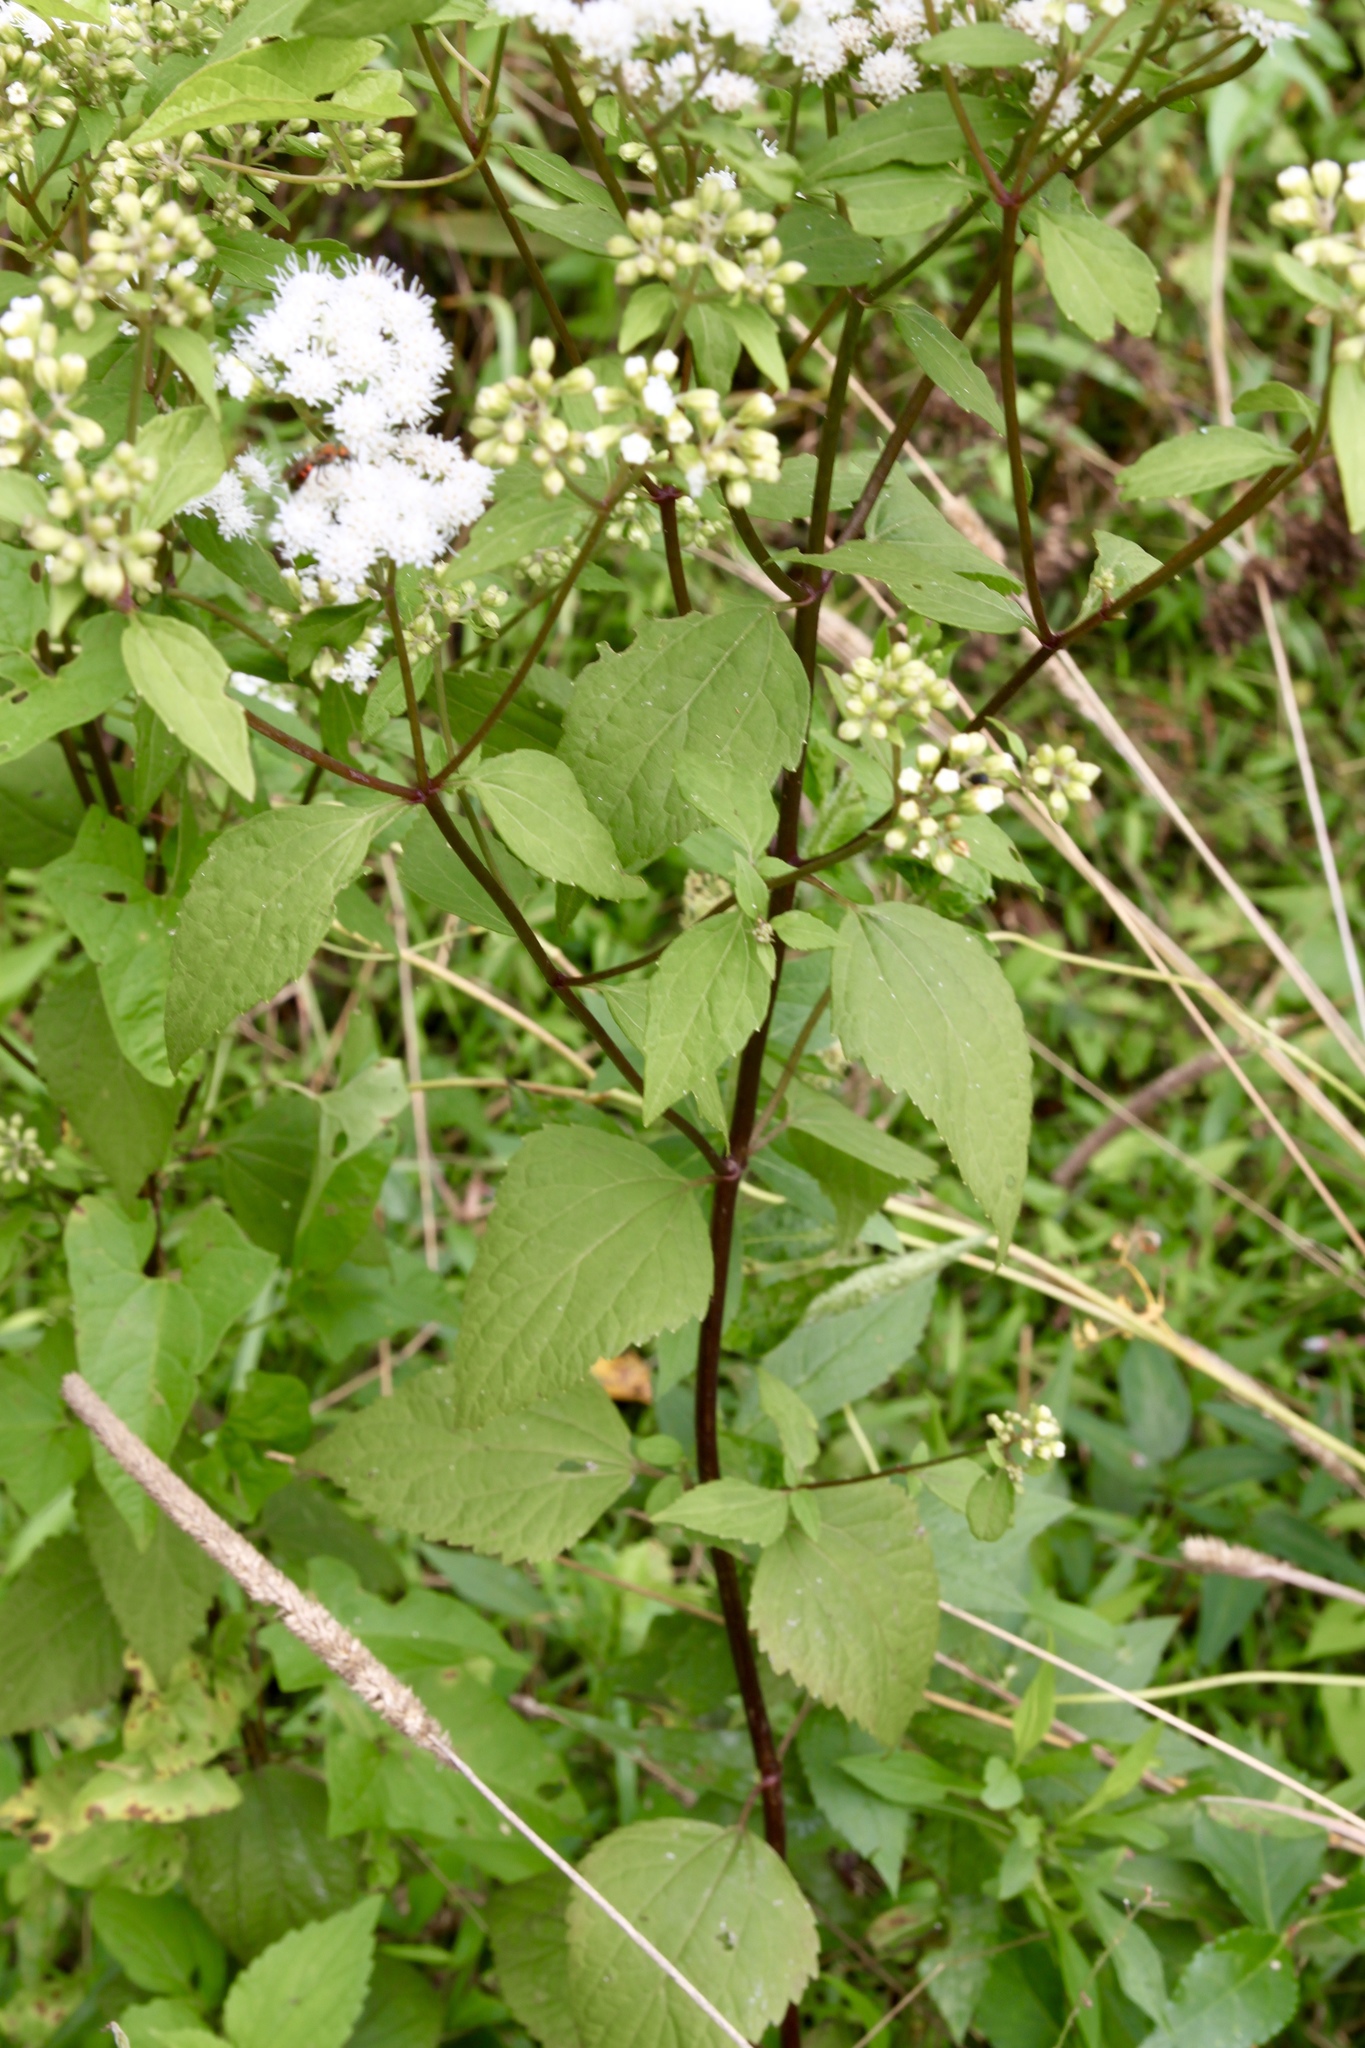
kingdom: Plantae
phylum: Tracheophyta
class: Magnoliopsida
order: Asterales
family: Asteraceae
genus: Ageratina
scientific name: Ageratina altissima
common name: White snakeroot
